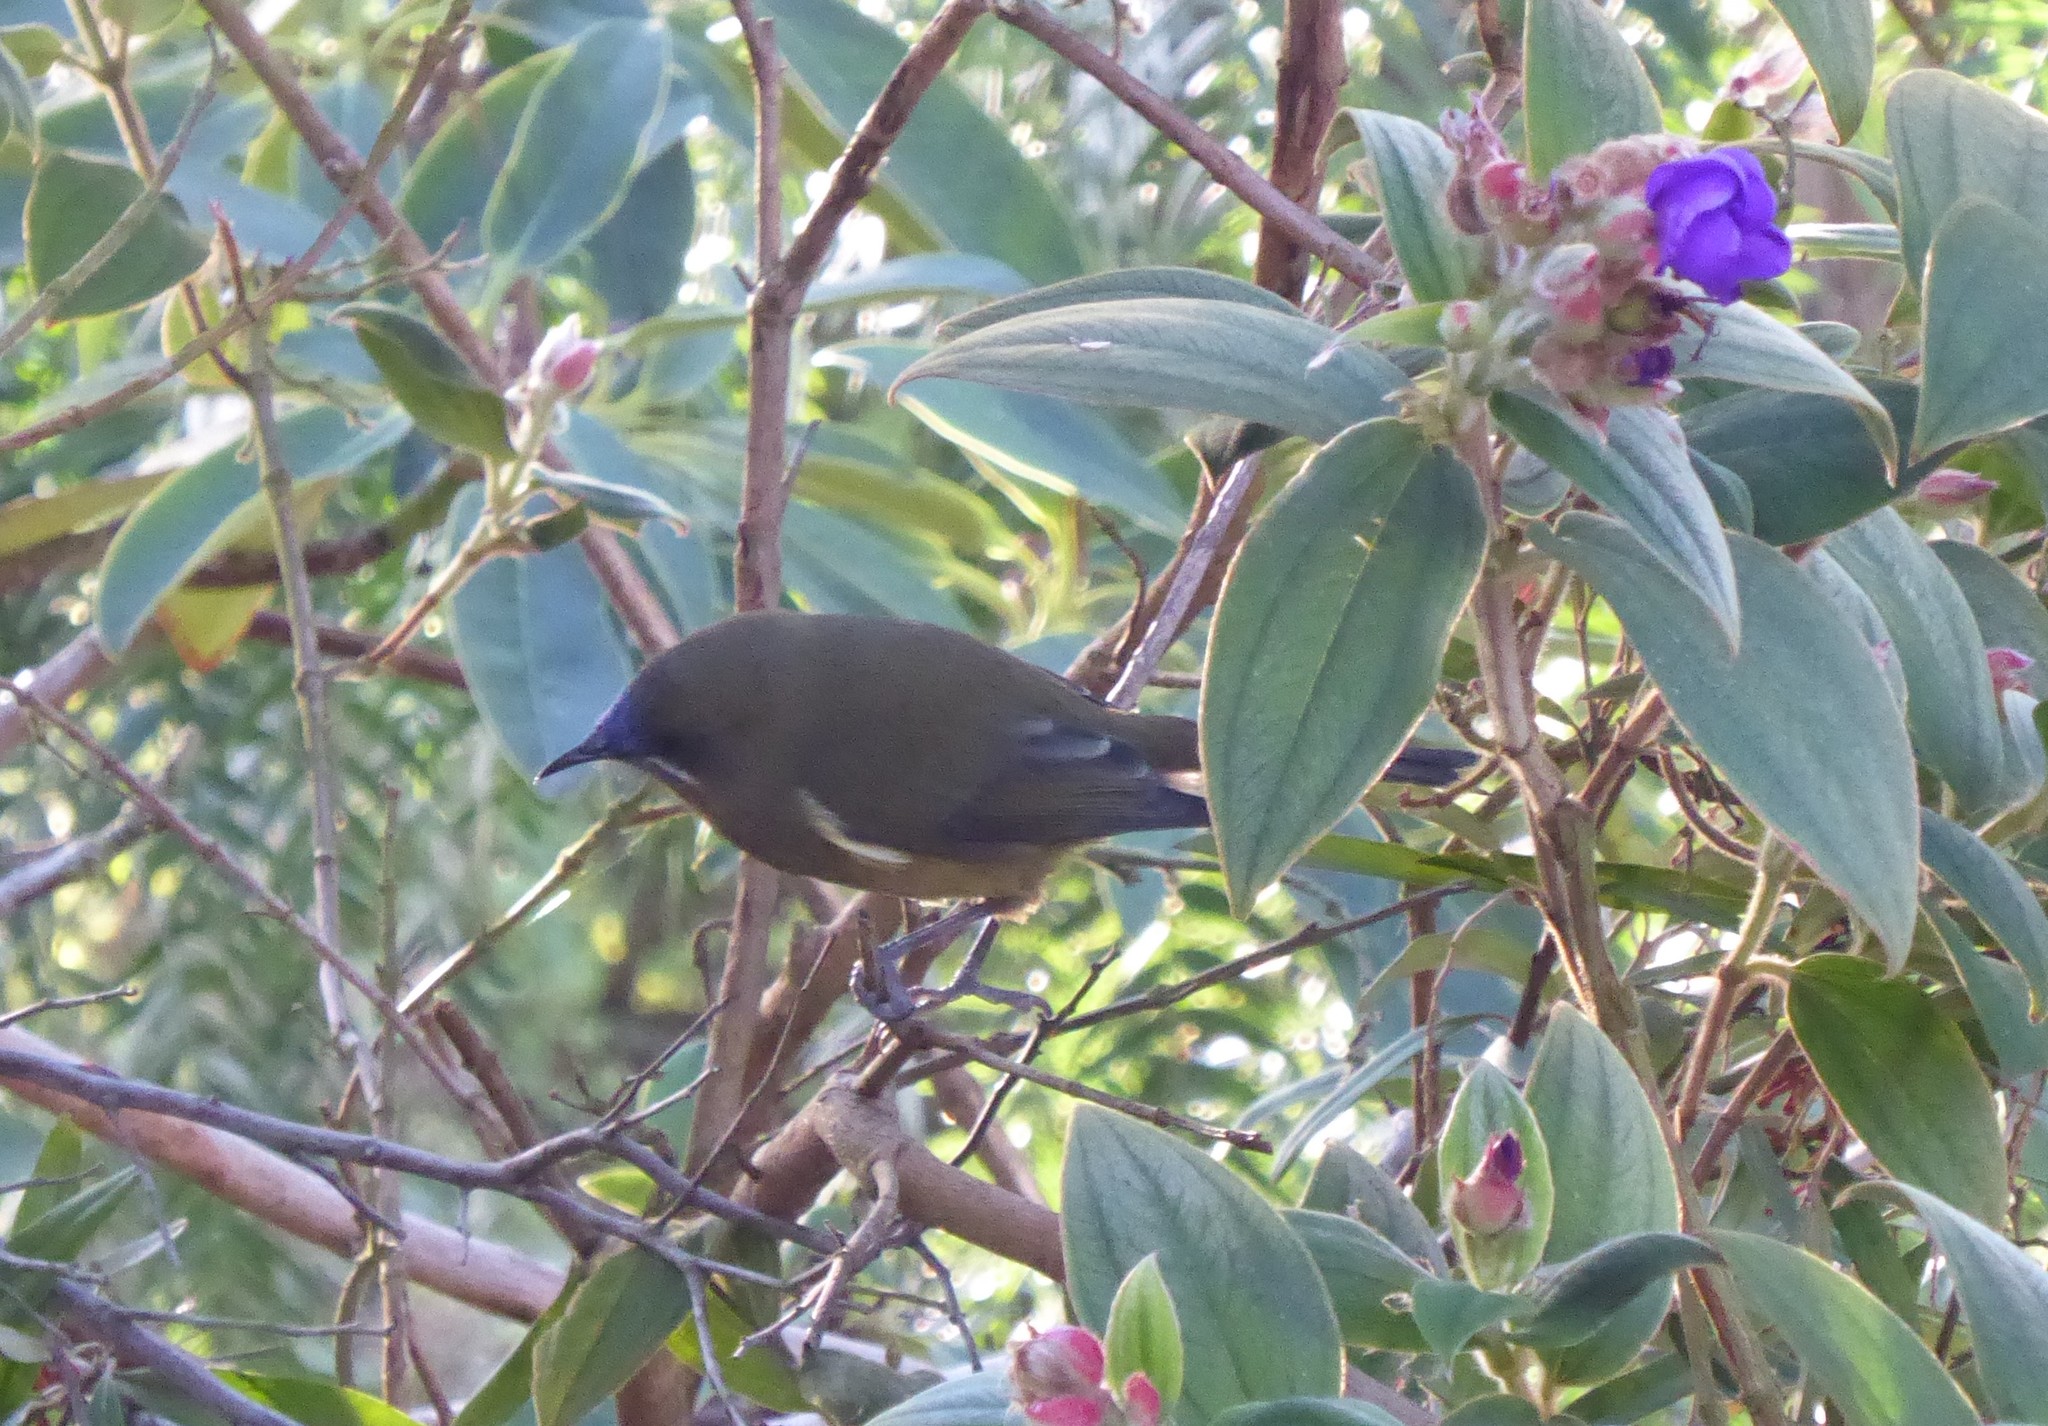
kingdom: Animalia
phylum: Chordata
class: Aves
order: Passeriformes
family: Meliphagidae
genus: Anthornis
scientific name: Anthornis melanura
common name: New zealand bellbird
